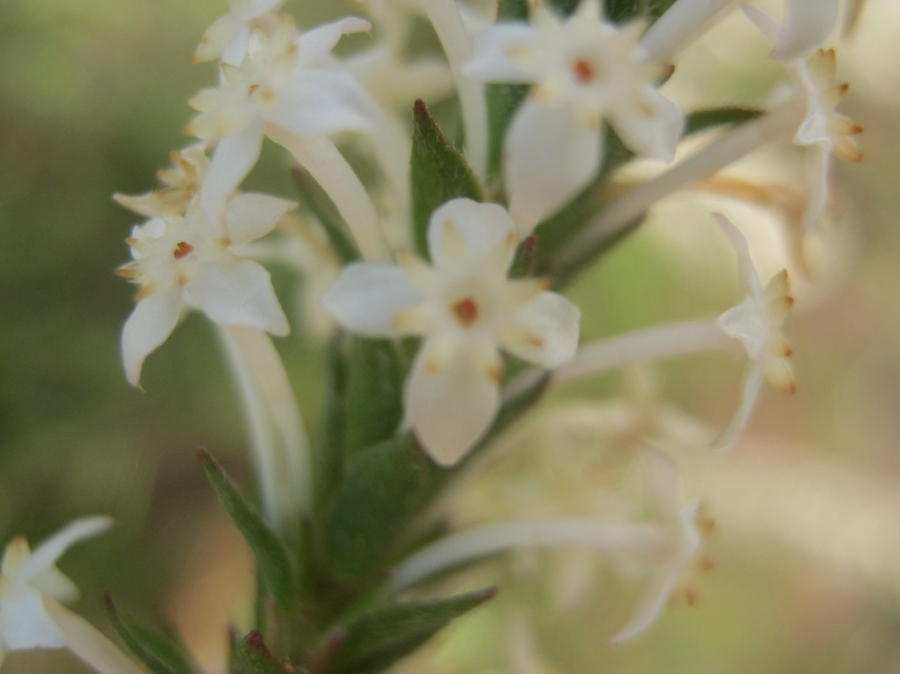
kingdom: Plantae
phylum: Tracheophyta
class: Magnoliopsida
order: Malvales
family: Thymelaeaceae
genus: Struthiola
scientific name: Struthiola hirsuta
